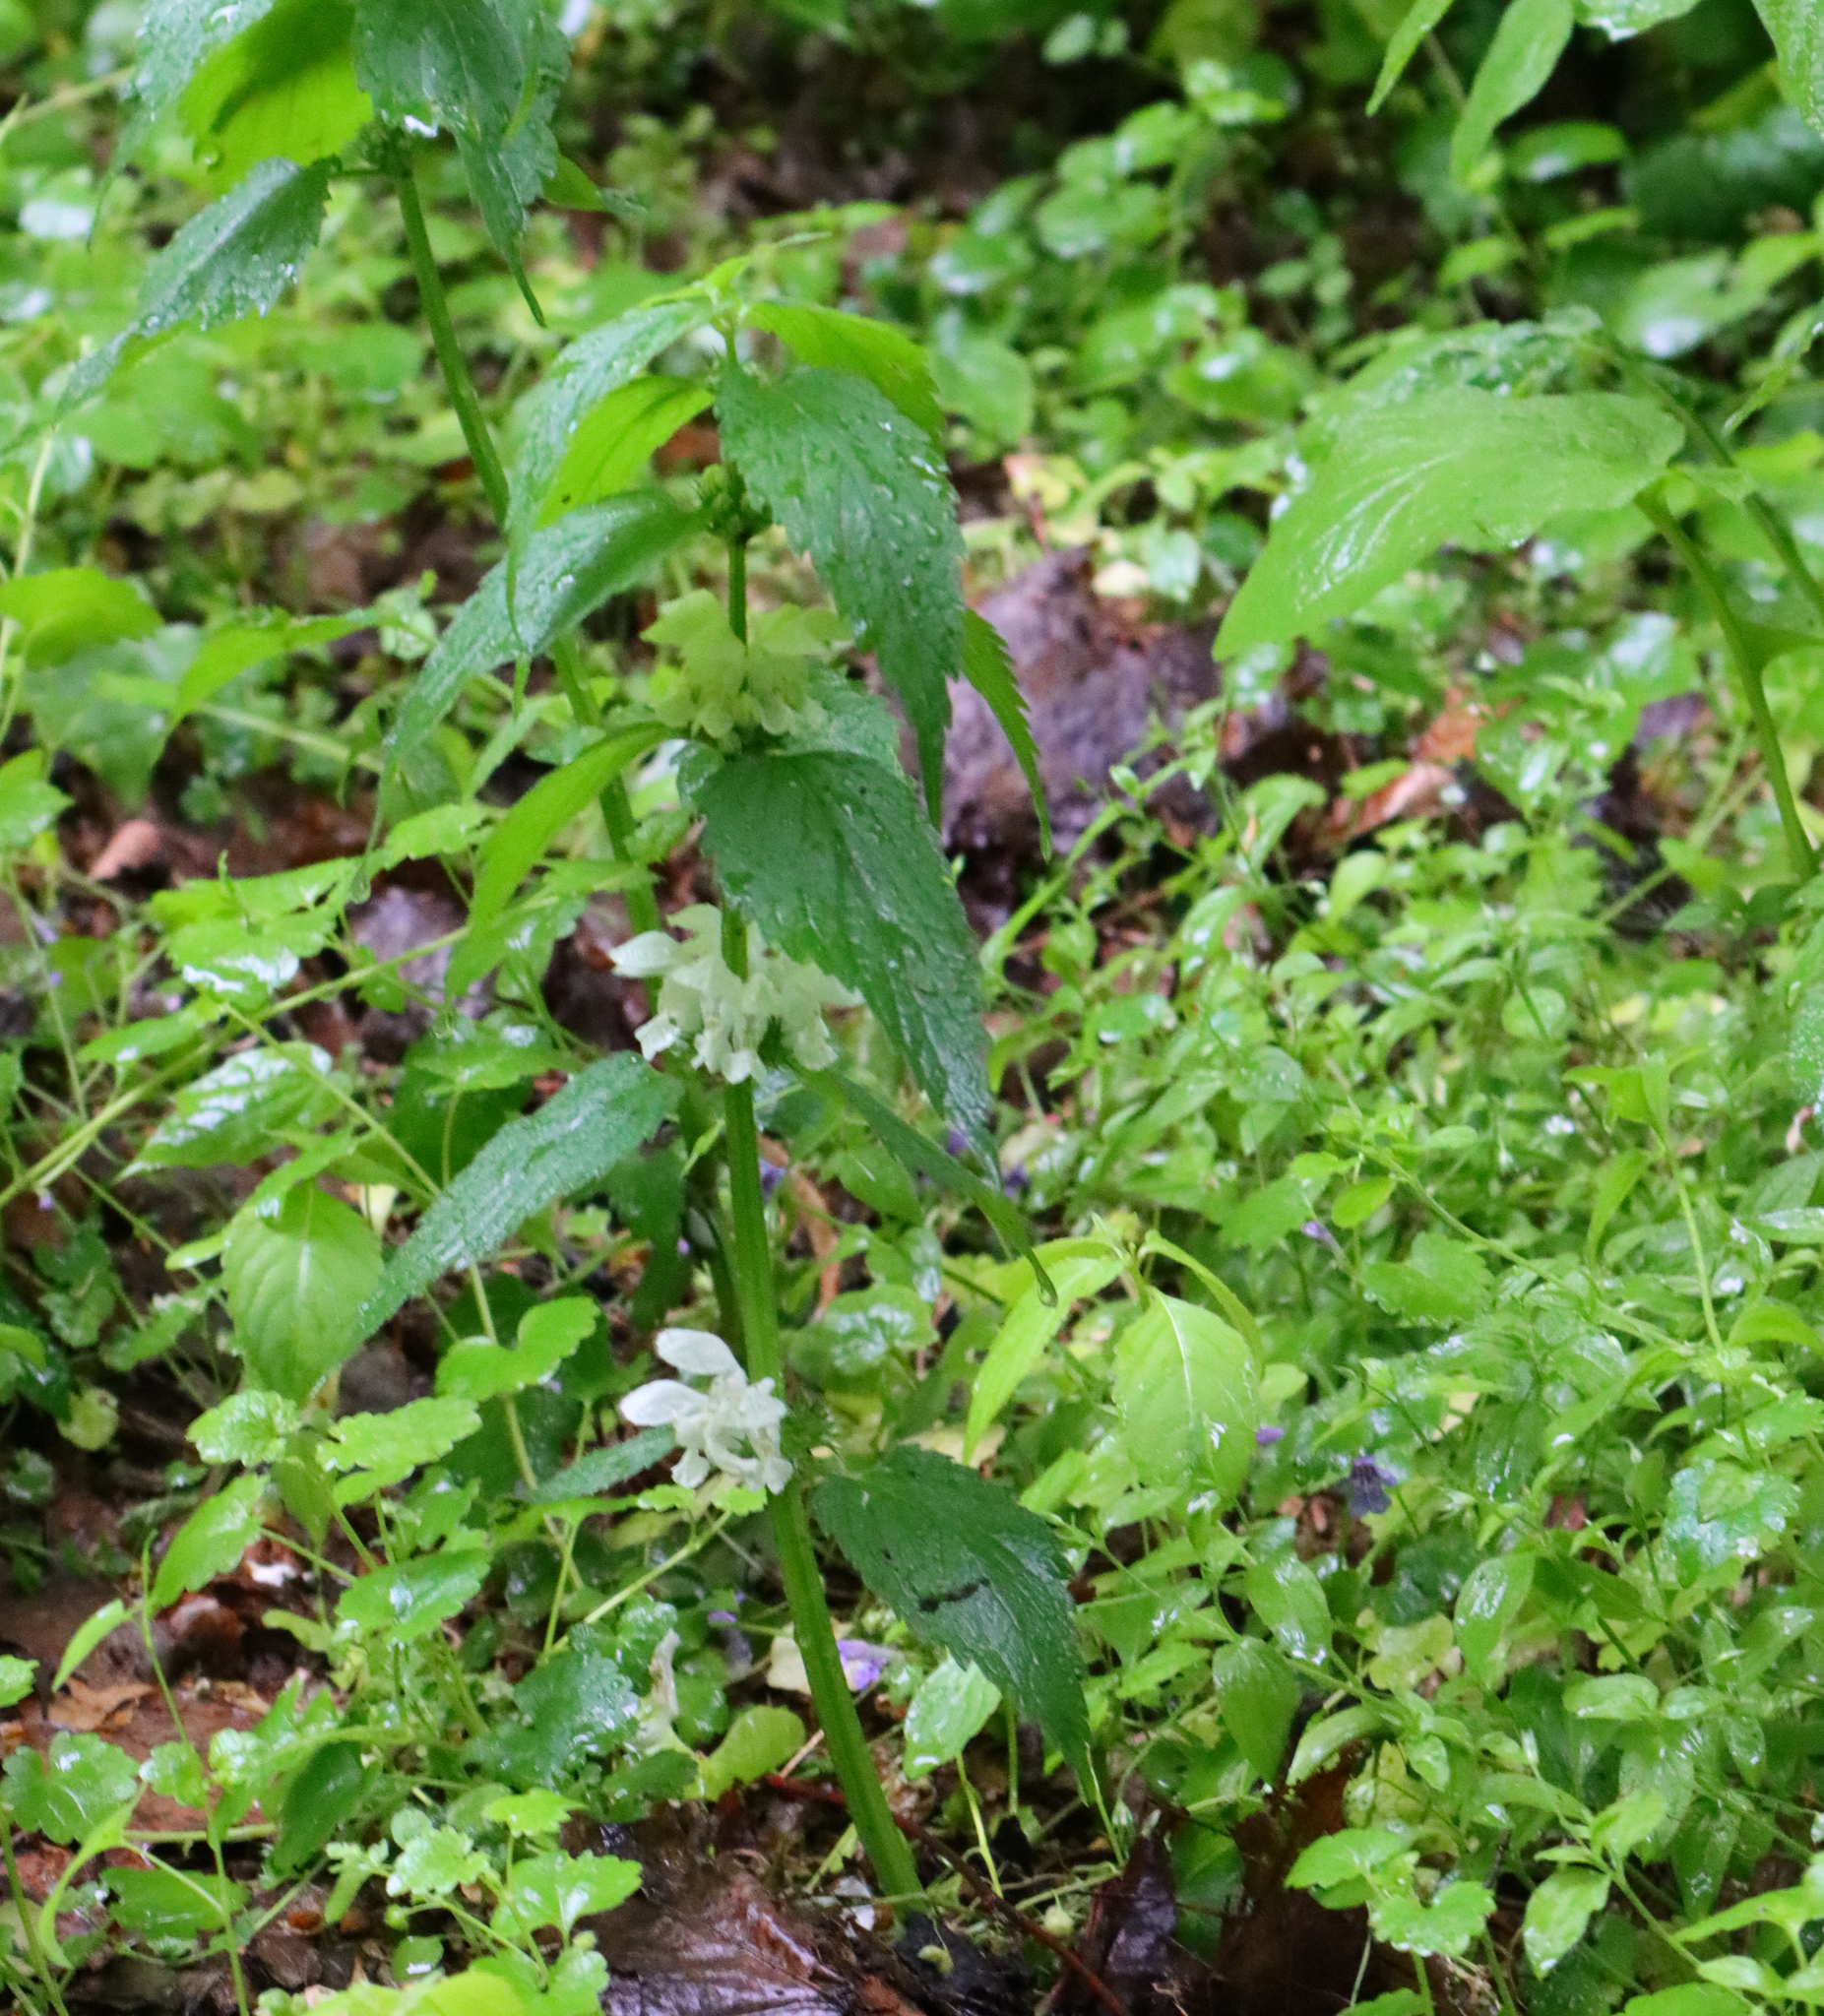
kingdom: Plantae
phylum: Tracheophyta
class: Magnoliopsida
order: Lamiales
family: Lamiaceae
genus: Lamium
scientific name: Lamium album
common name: White dead-nettle
